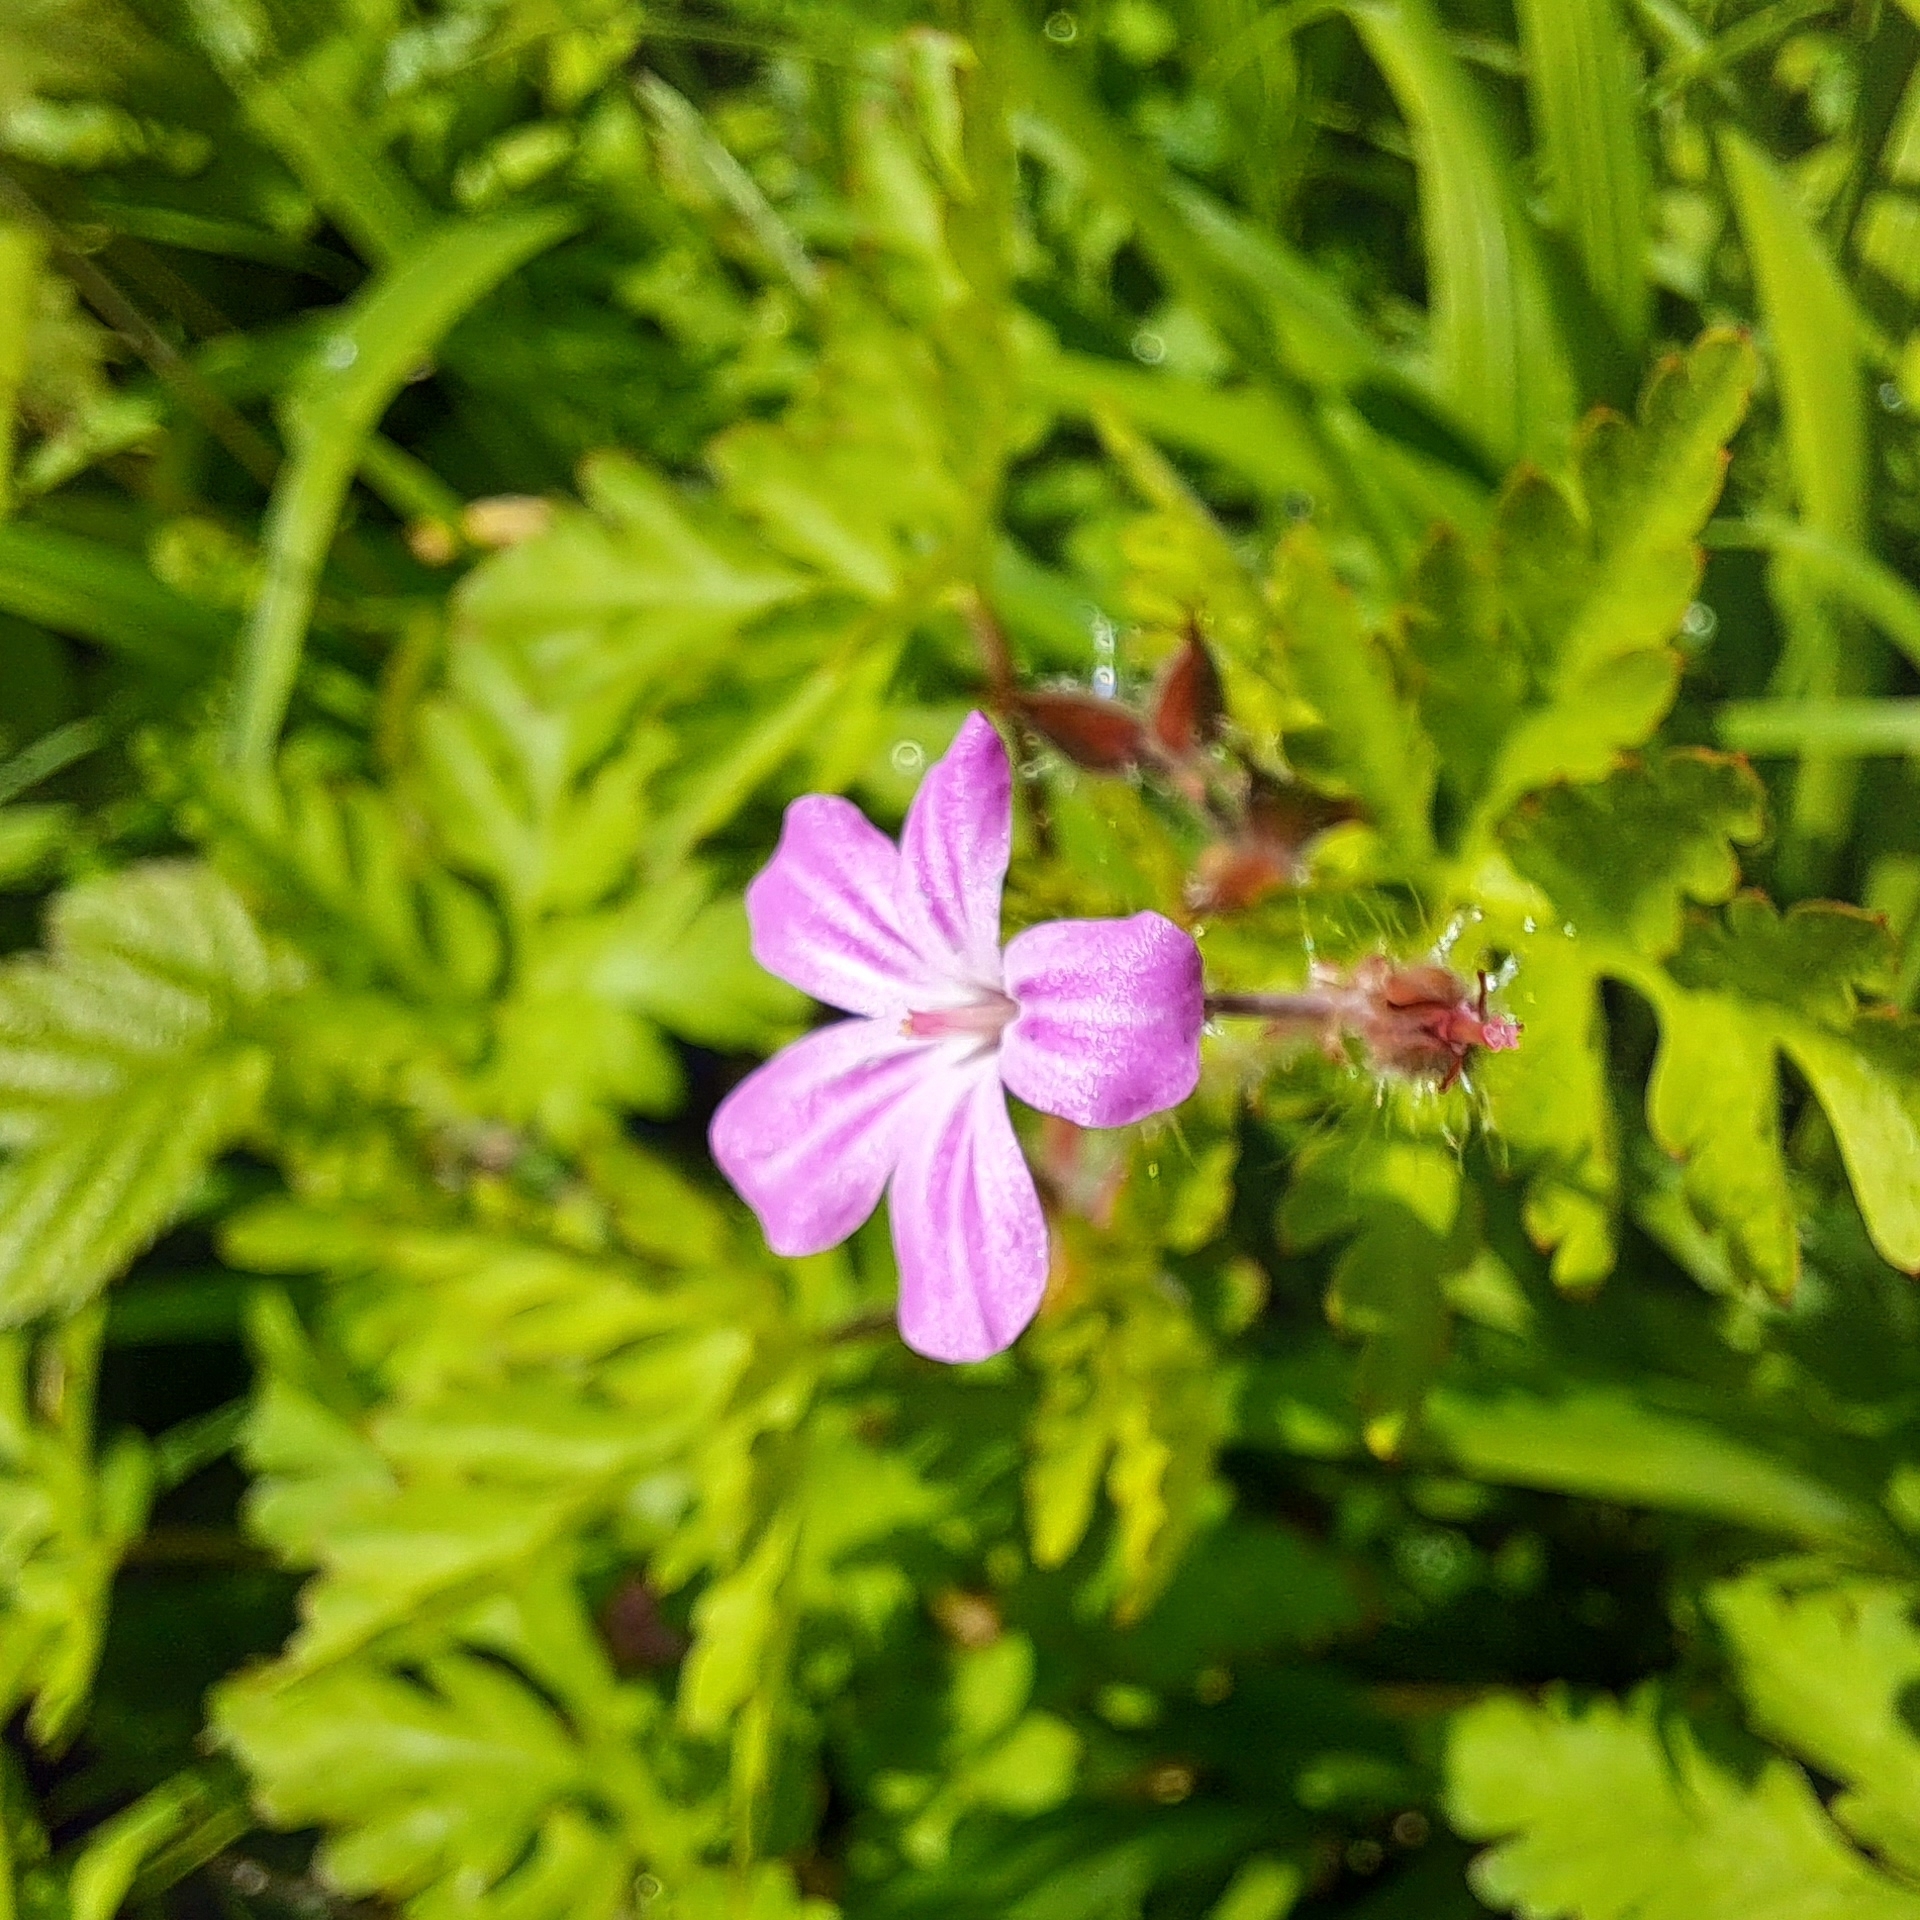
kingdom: Plantae
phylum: Tracheophyta
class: Magnoliopsida
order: Geraniales
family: Geraniaceae
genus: Geranium
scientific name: Geranium robertianum
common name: Herb-robert
